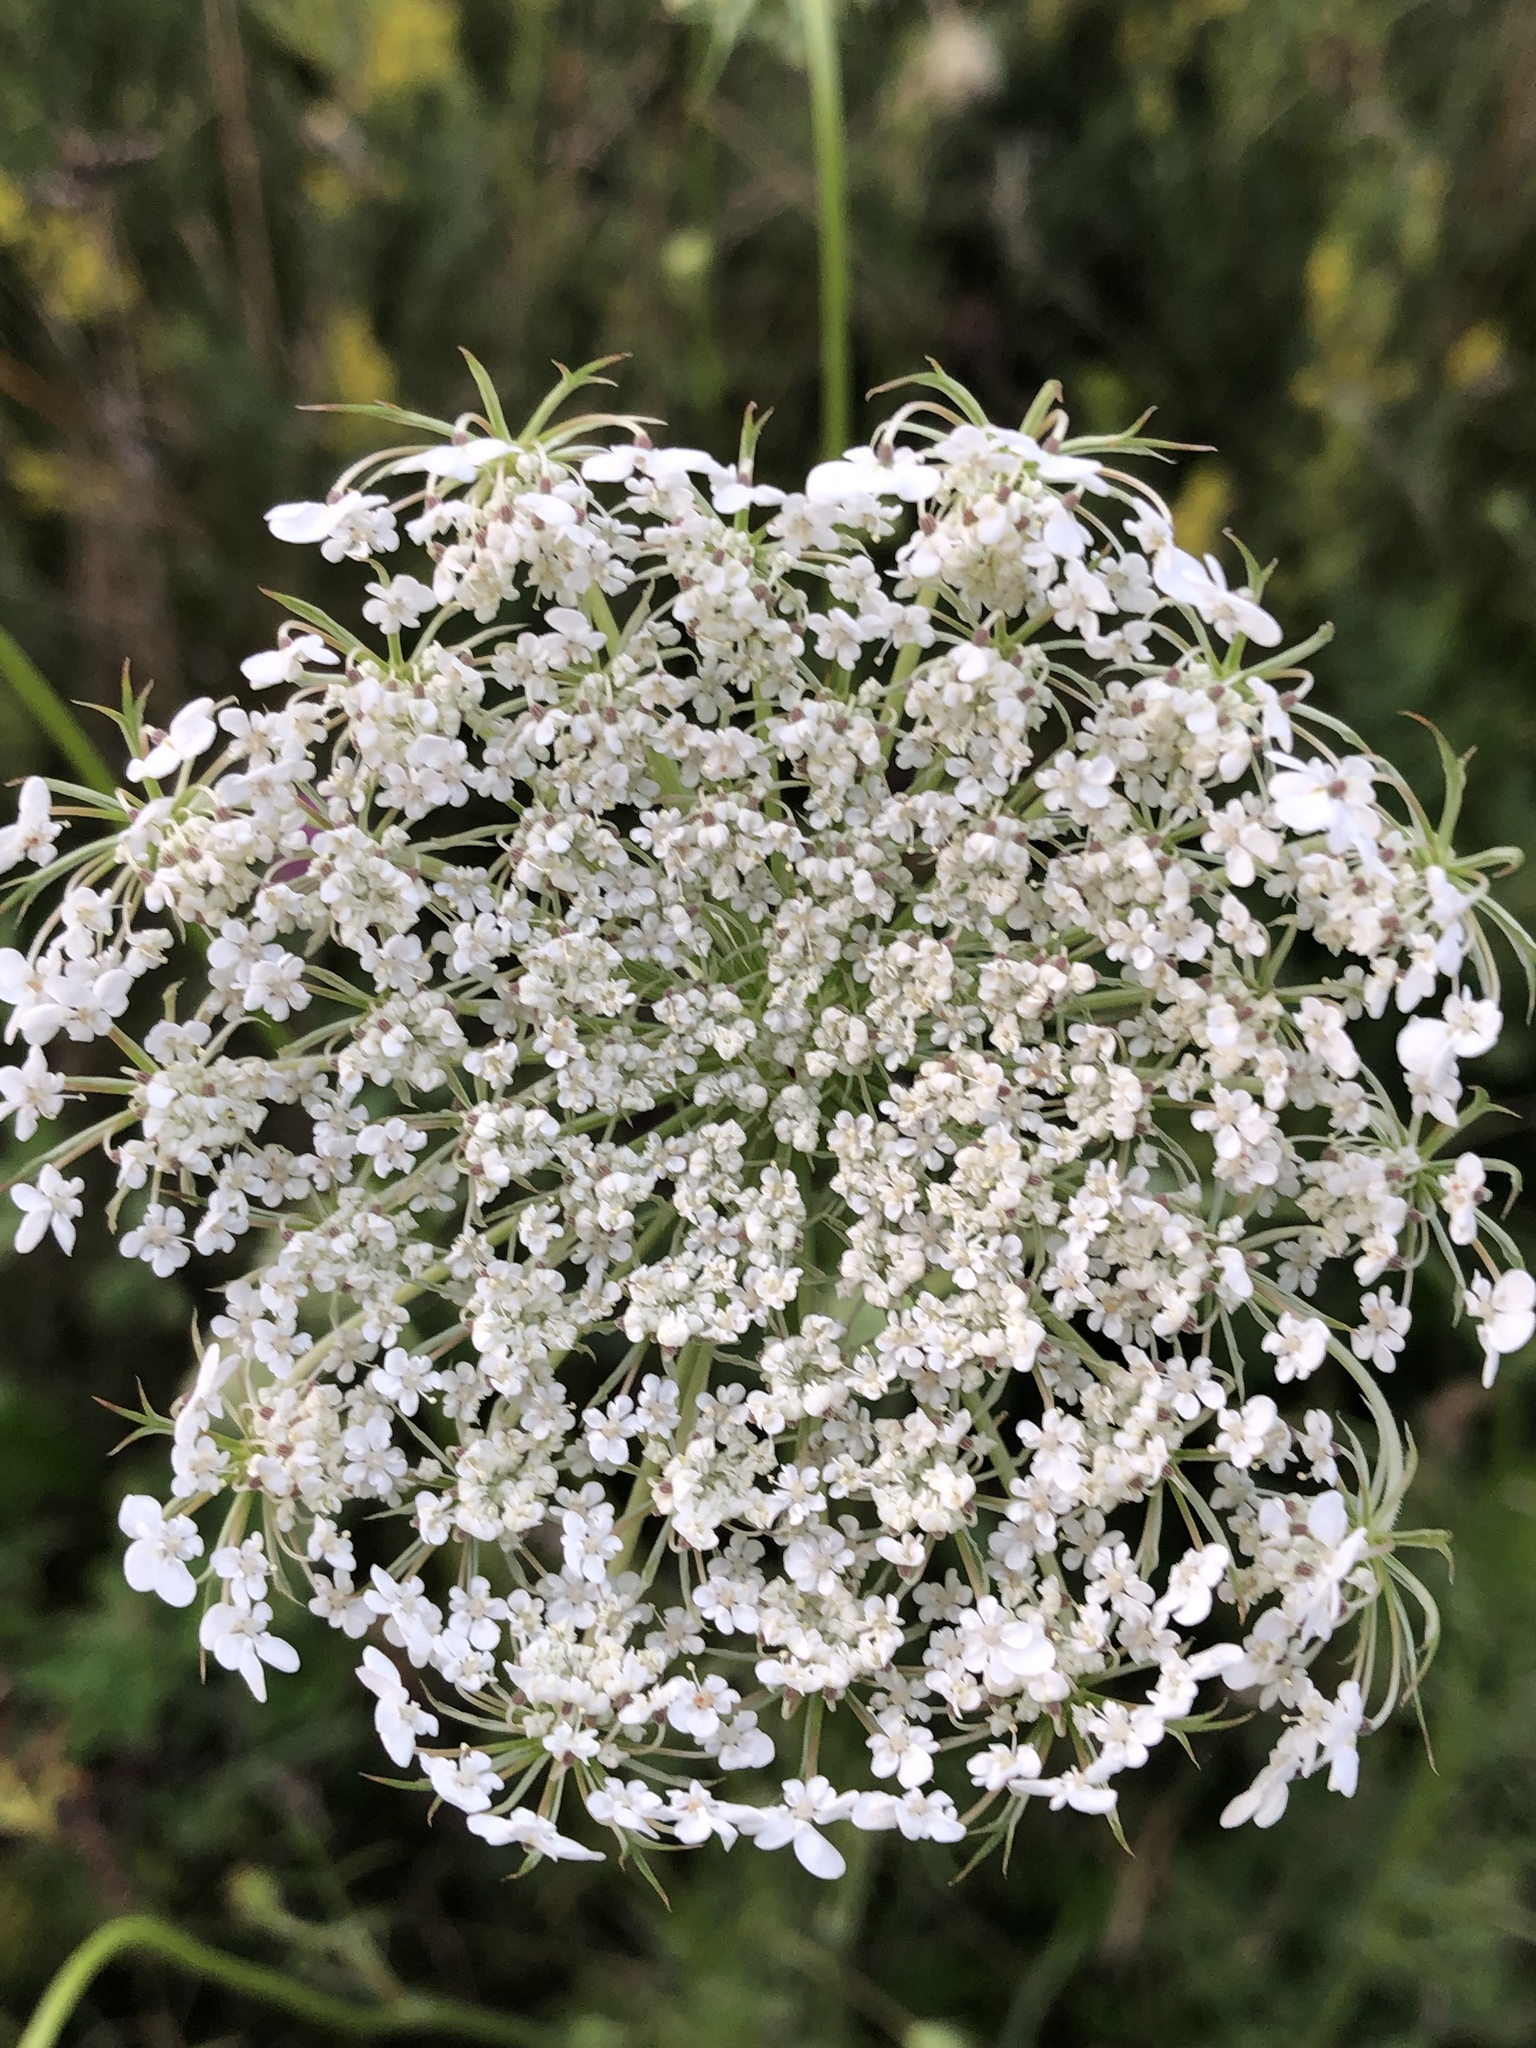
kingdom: Plantae
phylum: Tracheophyta
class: Magnoliopsida
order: Apiales
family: Apiaceae
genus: Daucus
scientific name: Daucus carota
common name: Wild carrot
